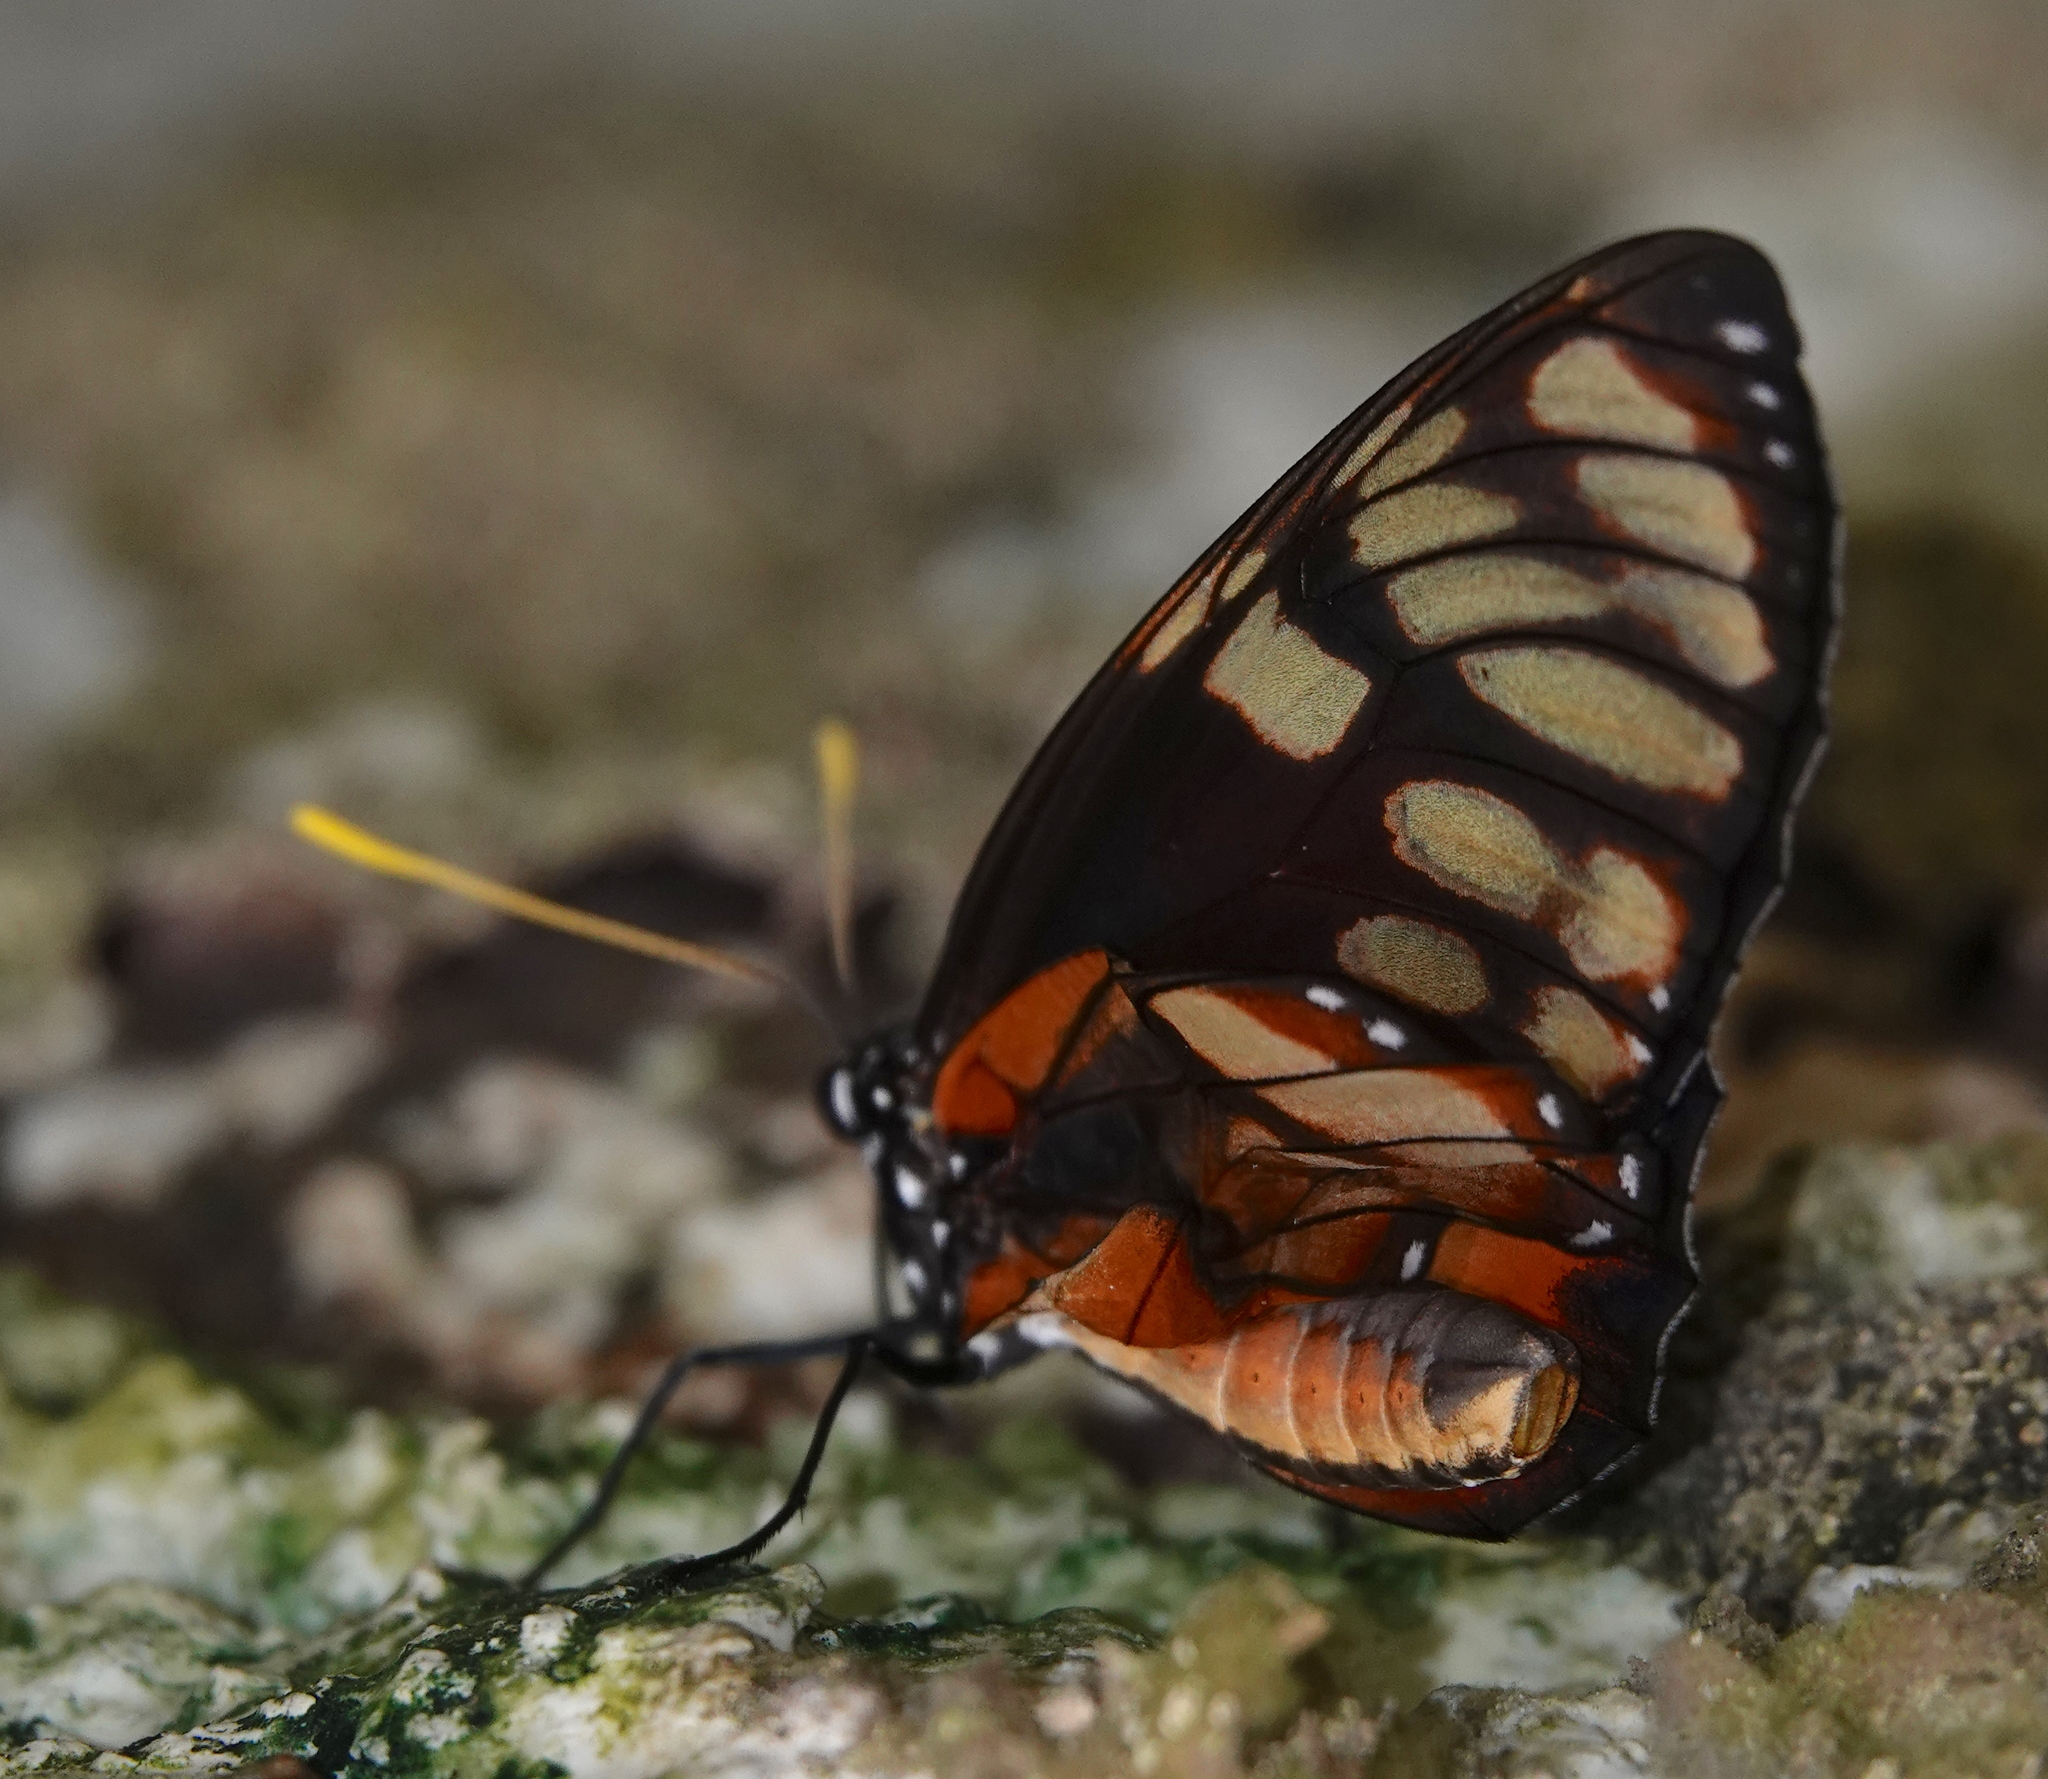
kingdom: Animalia
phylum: Arthropoda
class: Insecta
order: Lepidoptera
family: Nymphalidae
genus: Lycorea
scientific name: Lycorea ilione
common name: Clearwing mimic-queen
